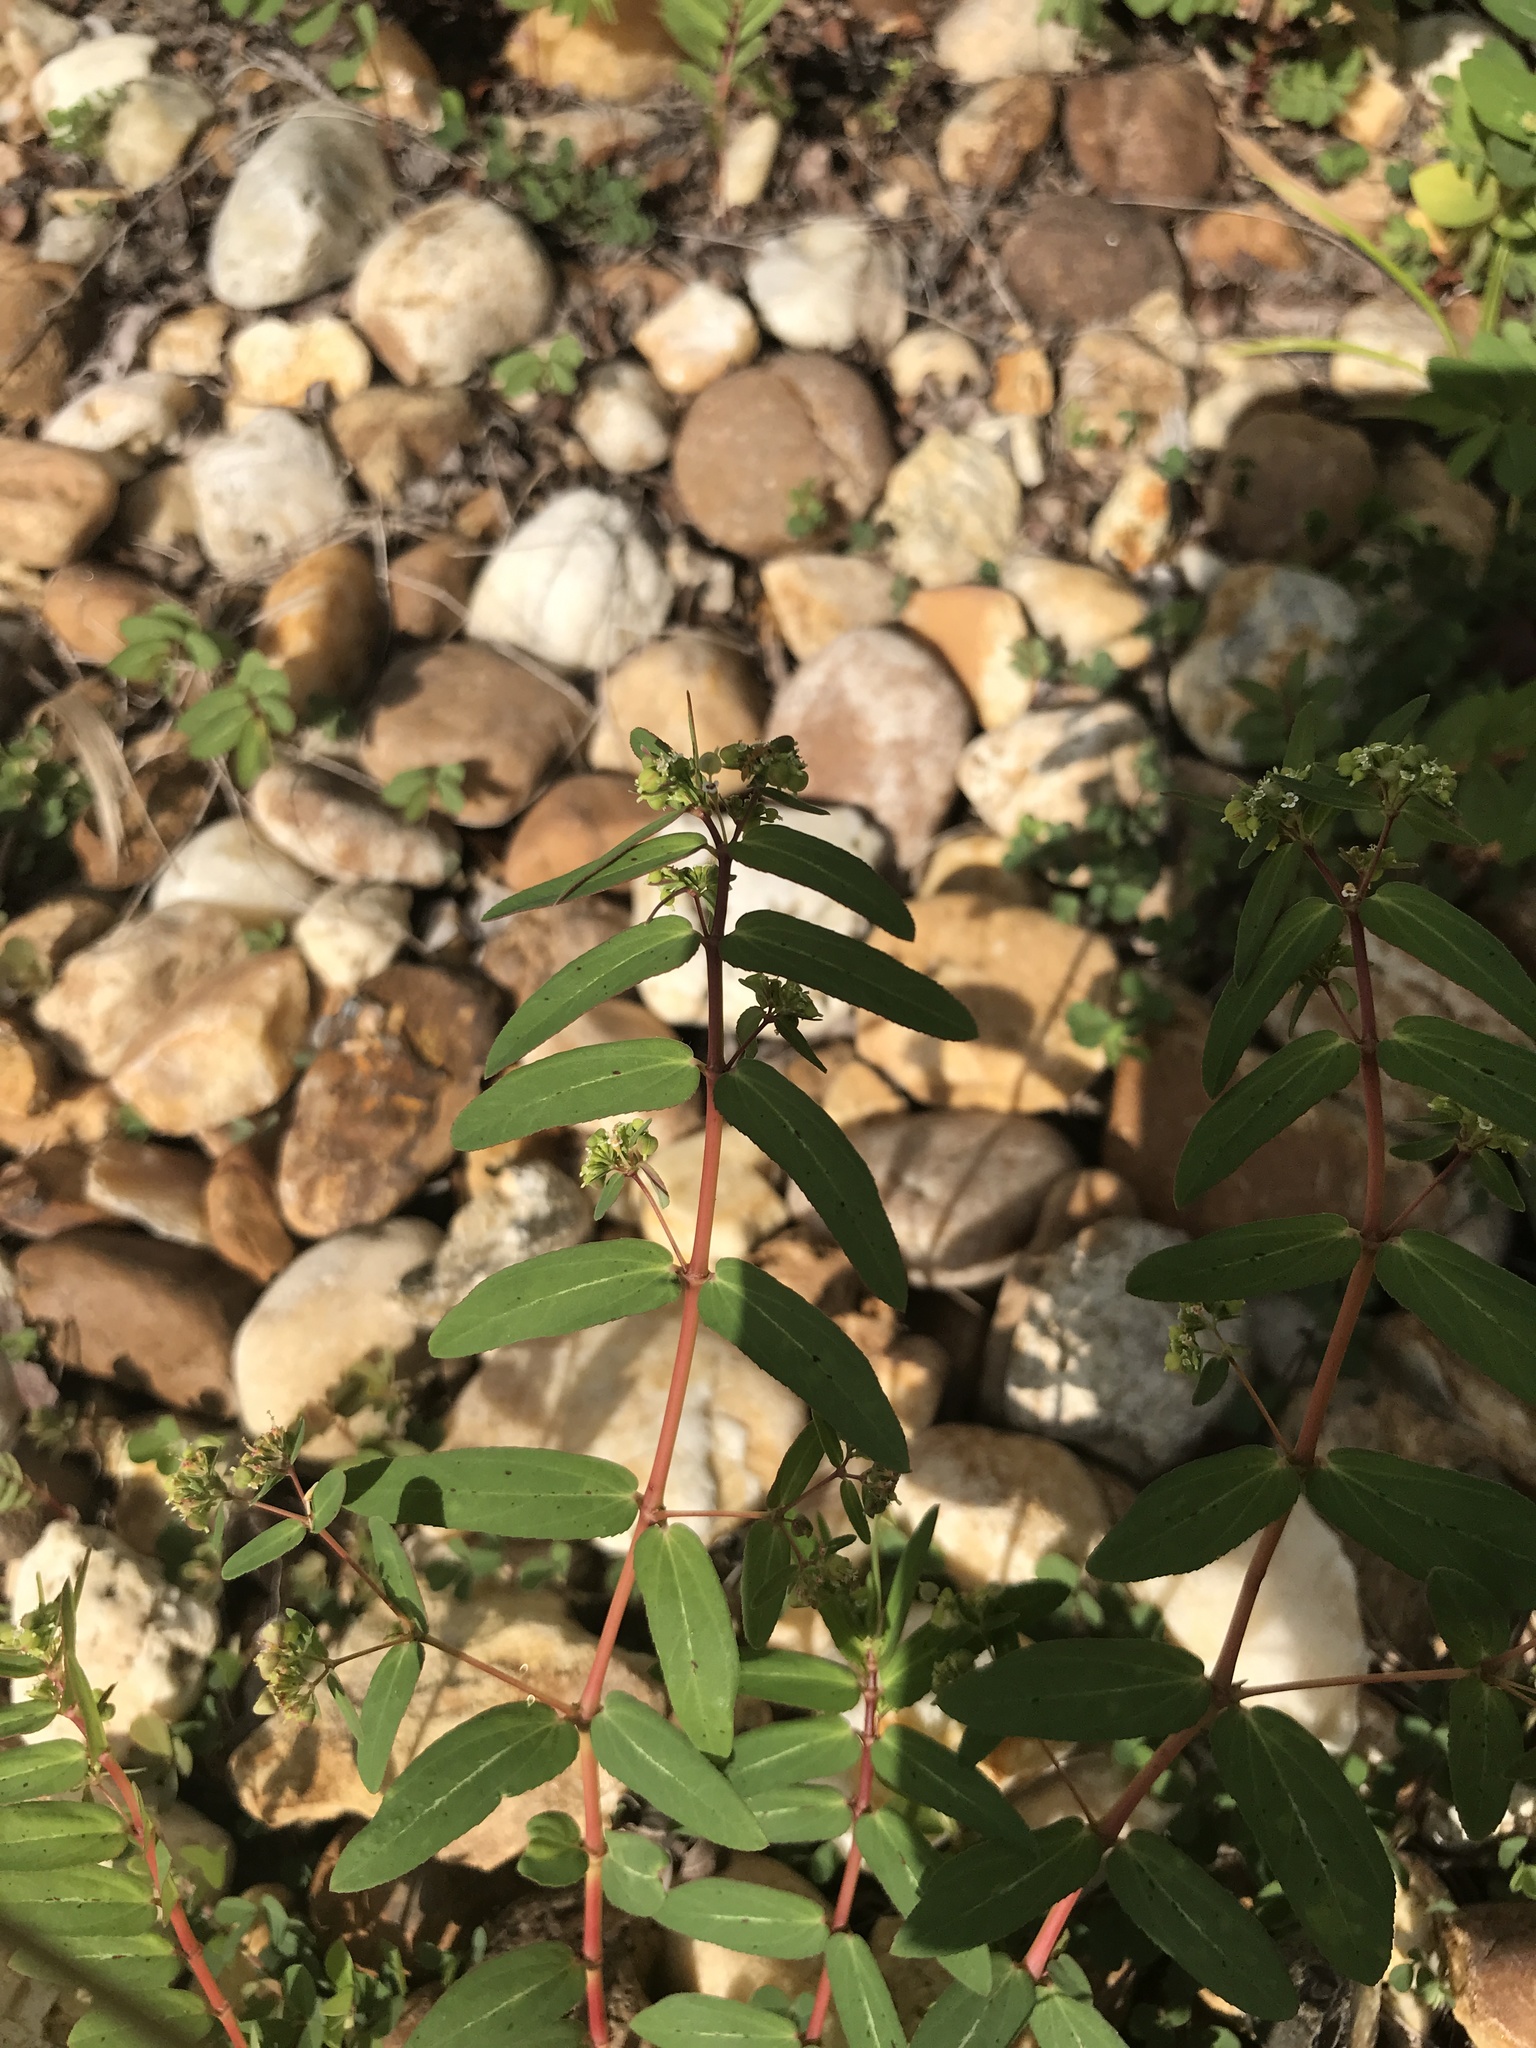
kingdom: Plantae
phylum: Tracheophyta
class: Magnoliopsida
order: Malpighiales
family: Euphorbiaceae
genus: Euphorbia
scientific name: Euphorbia hyssopifolia
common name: Hyssopleaf sandmat
